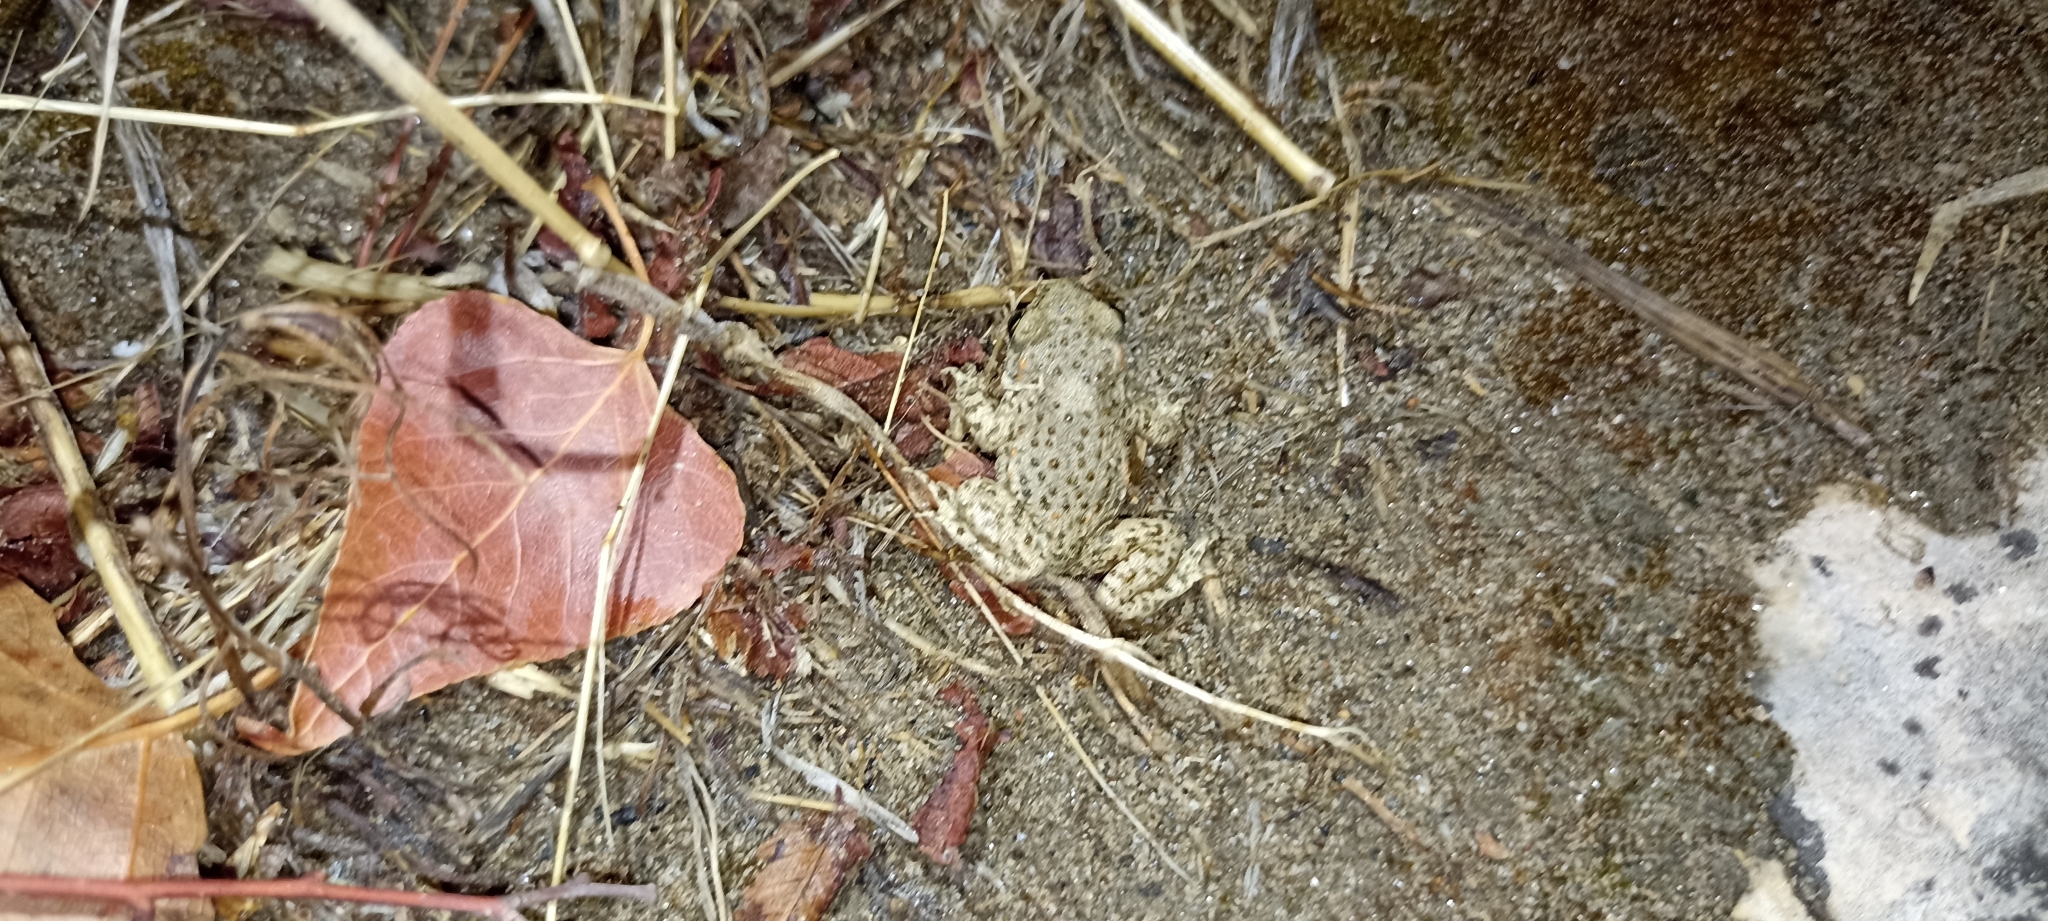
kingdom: Animalia
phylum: Chordata
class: Amphibia
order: Anura
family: Alytidae
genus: Alytes
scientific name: Alytes obstetricans
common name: Midwife toad
